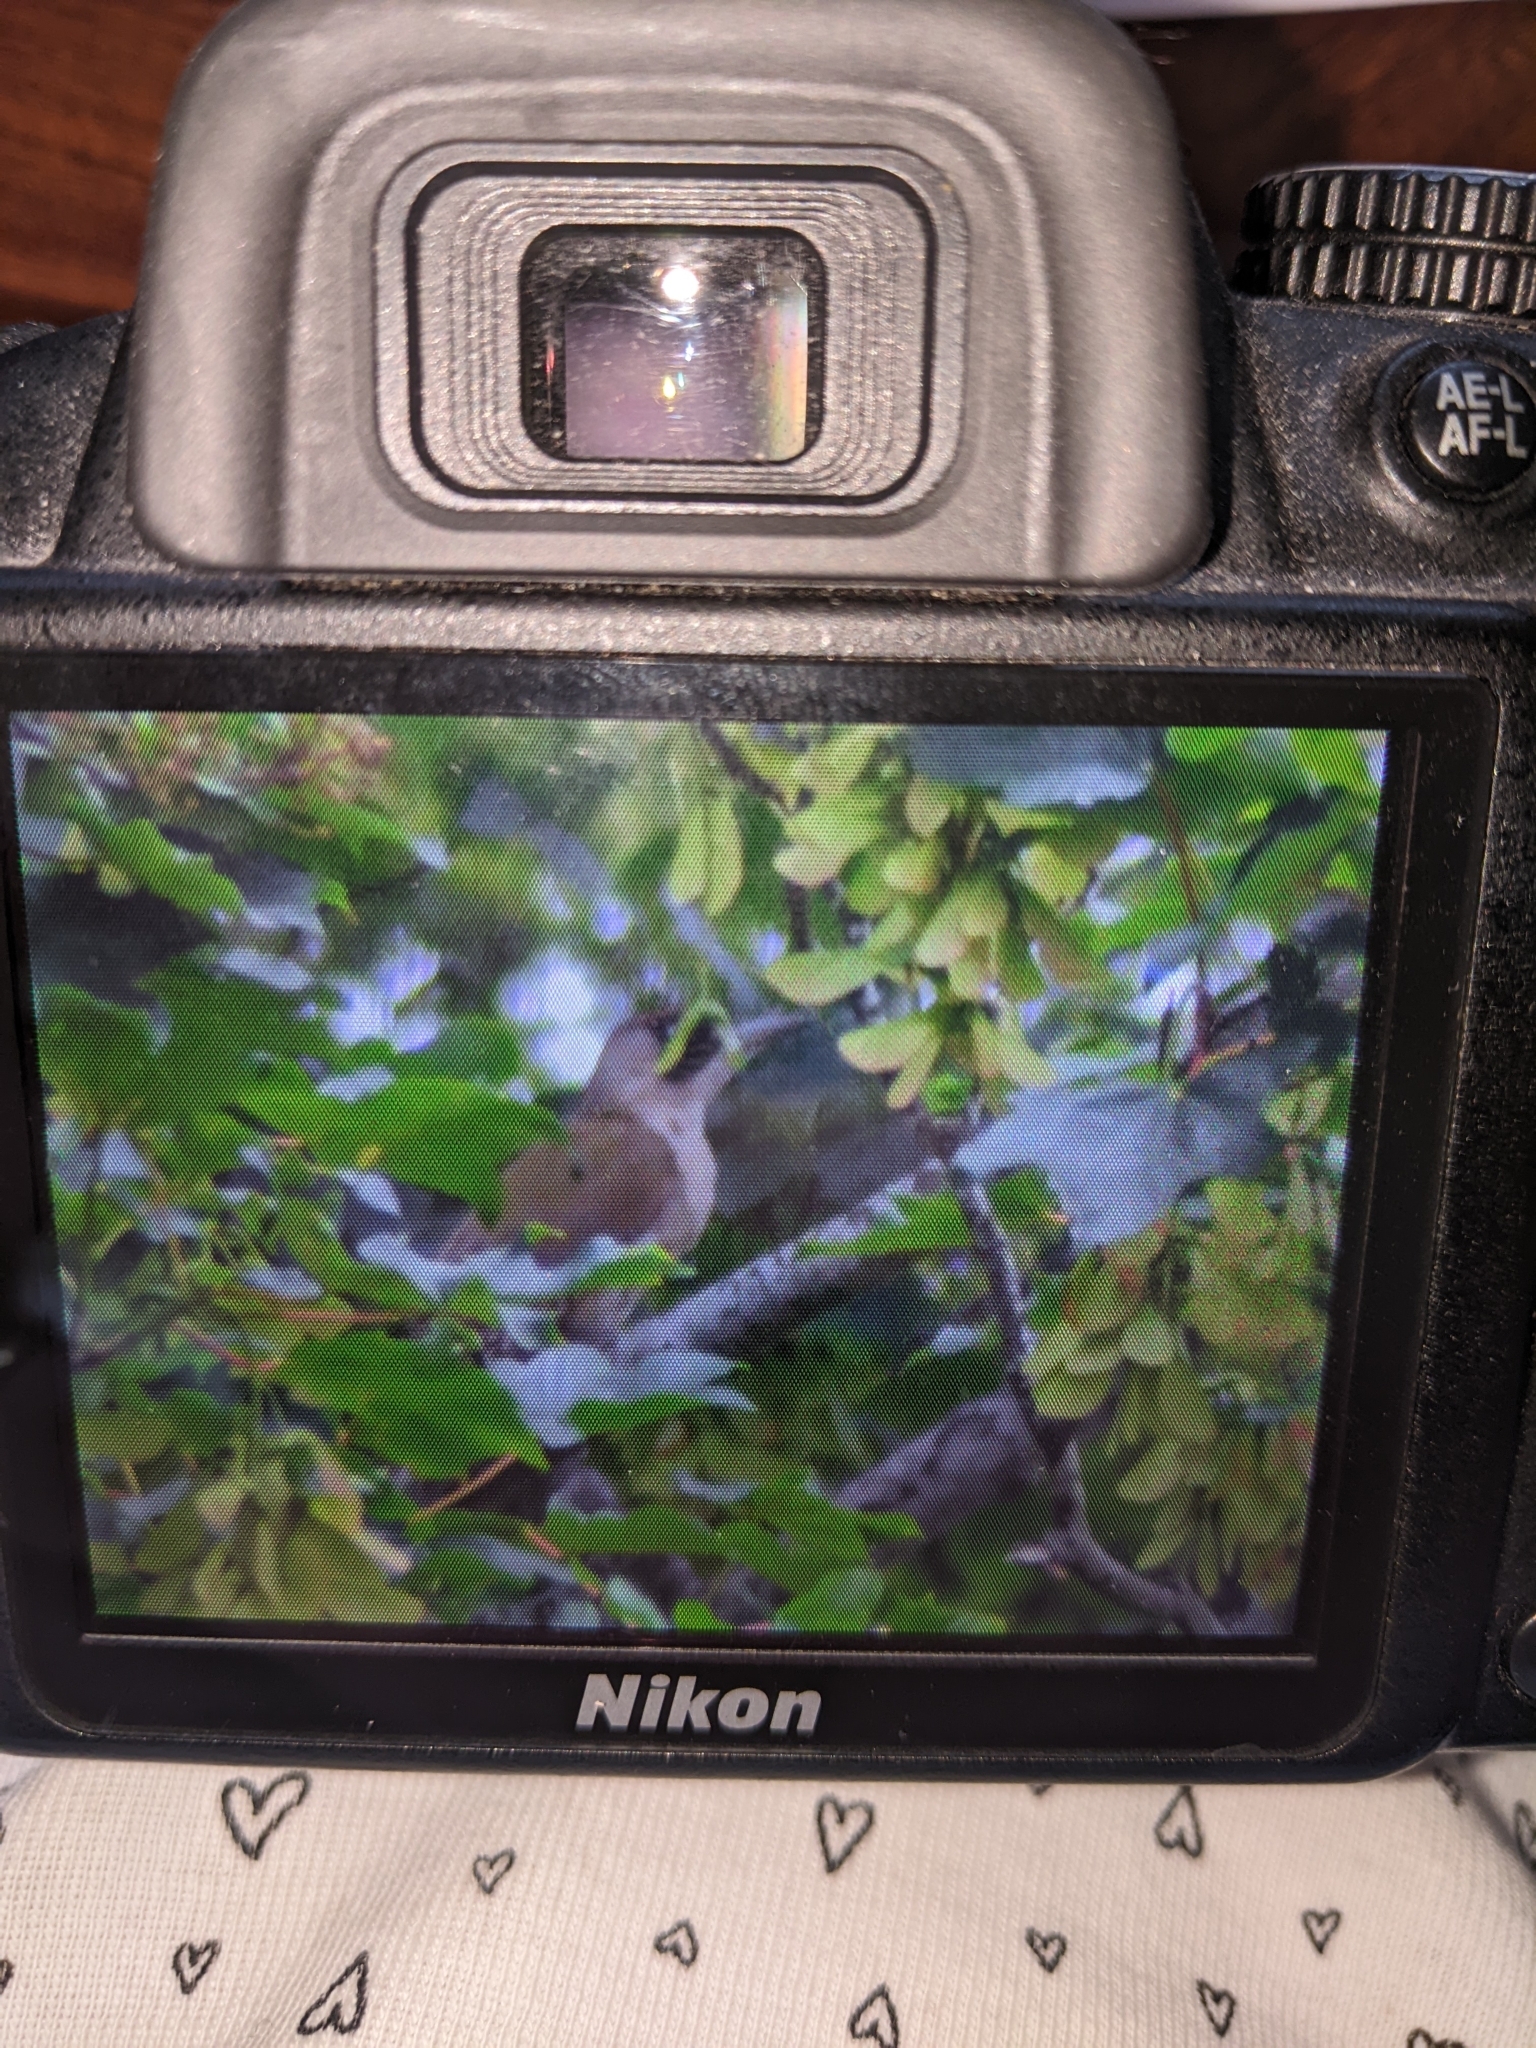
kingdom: Animalia
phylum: Chordata
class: Aves
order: Piciformes
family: Picidae
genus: Picus
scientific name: Picus viridis
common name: European green woodpecker
